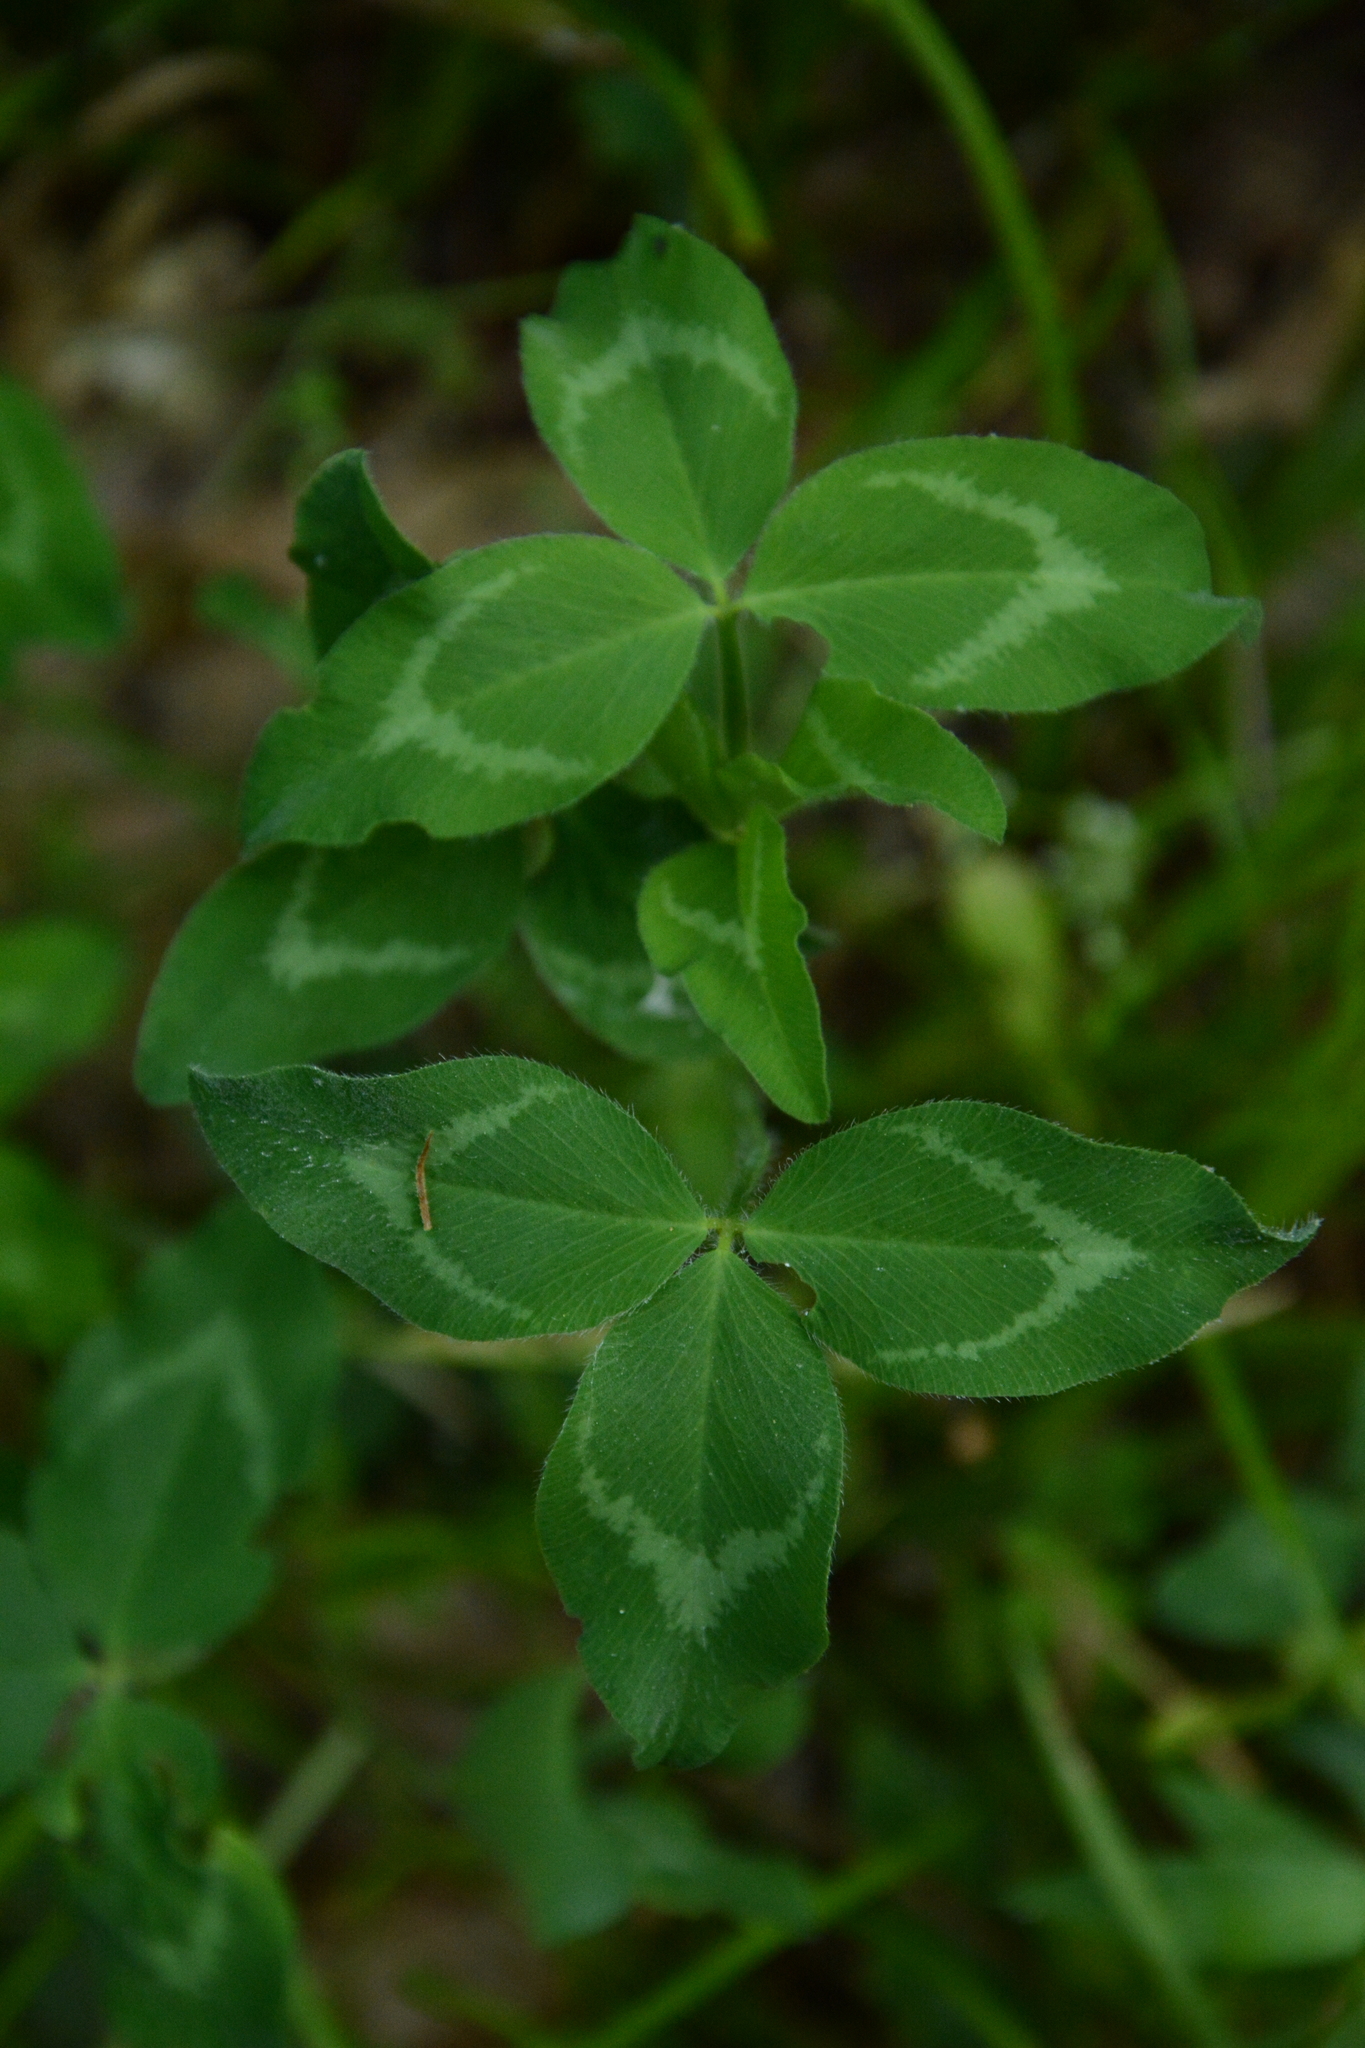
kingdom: Plantae
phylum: Tracheophyta
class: Magnoliopsida
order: Fabales
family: Fabaceae
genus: Trifolium
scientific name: Trifolium pratense
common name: Red clover
